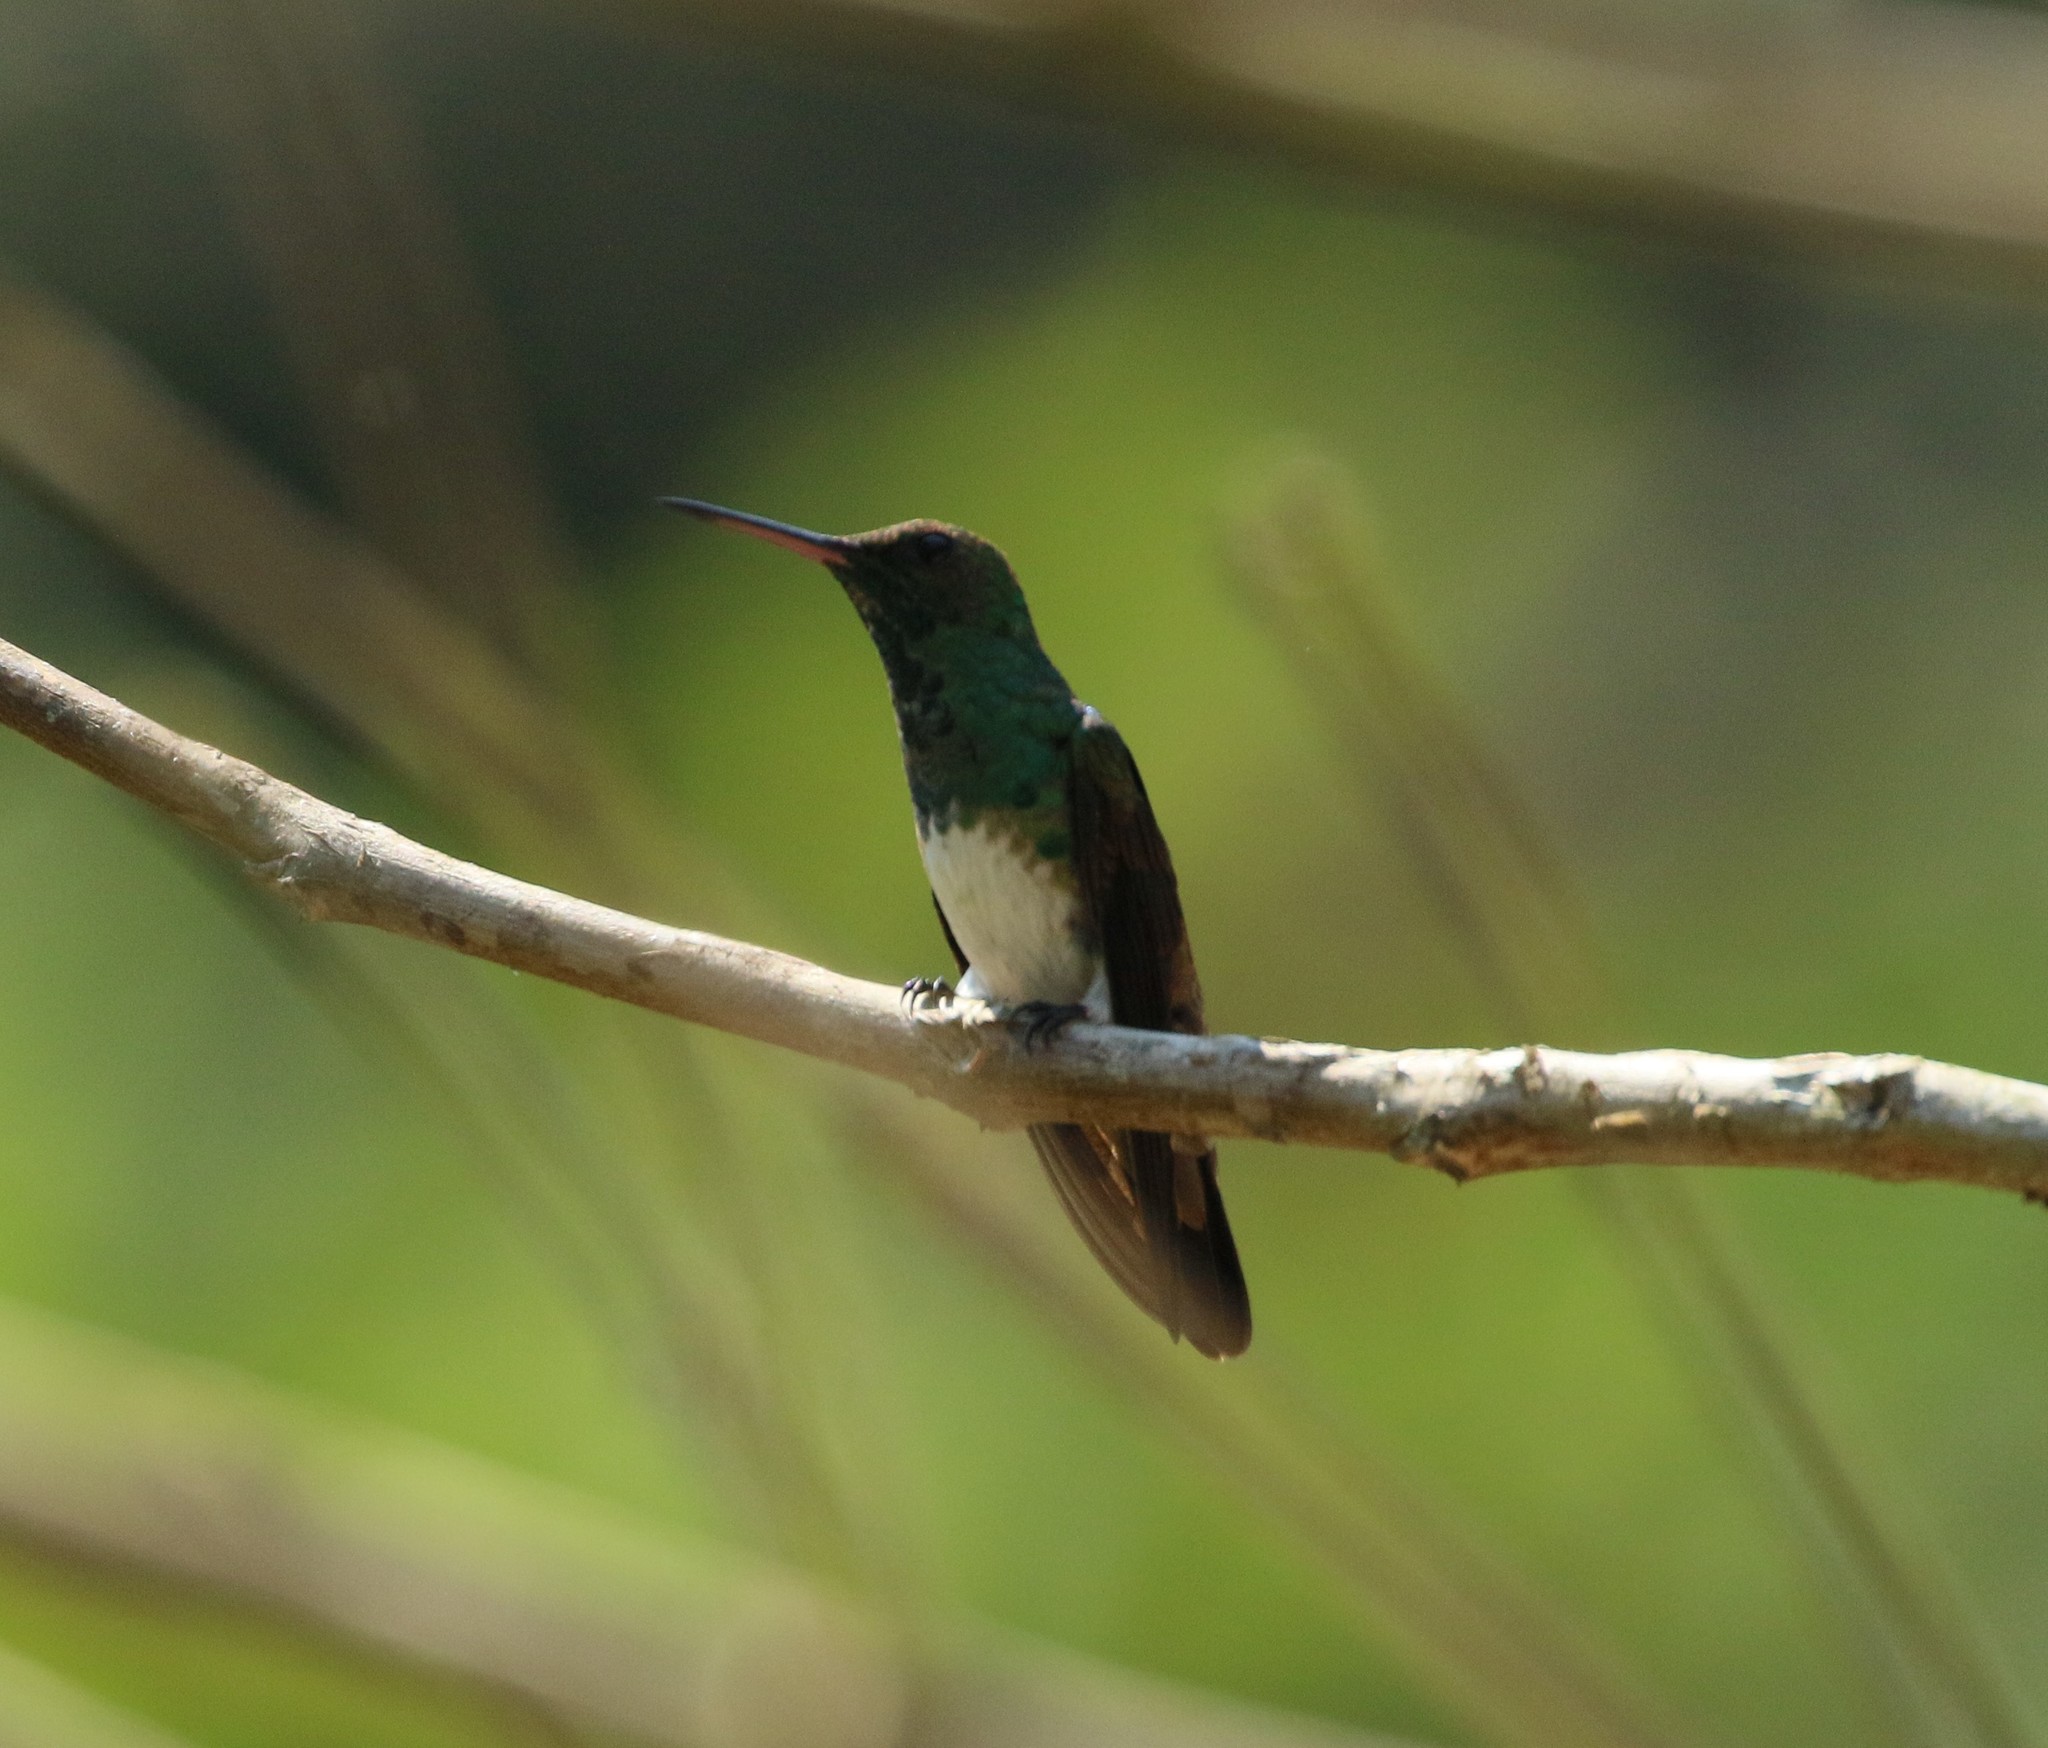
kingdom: Animalia
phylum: Chordata
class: Aves
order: Apodiformes
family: Trochilidae
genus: Saucerottia
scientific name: Saucerottia edward
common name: Snowy-bellied hummingbird
